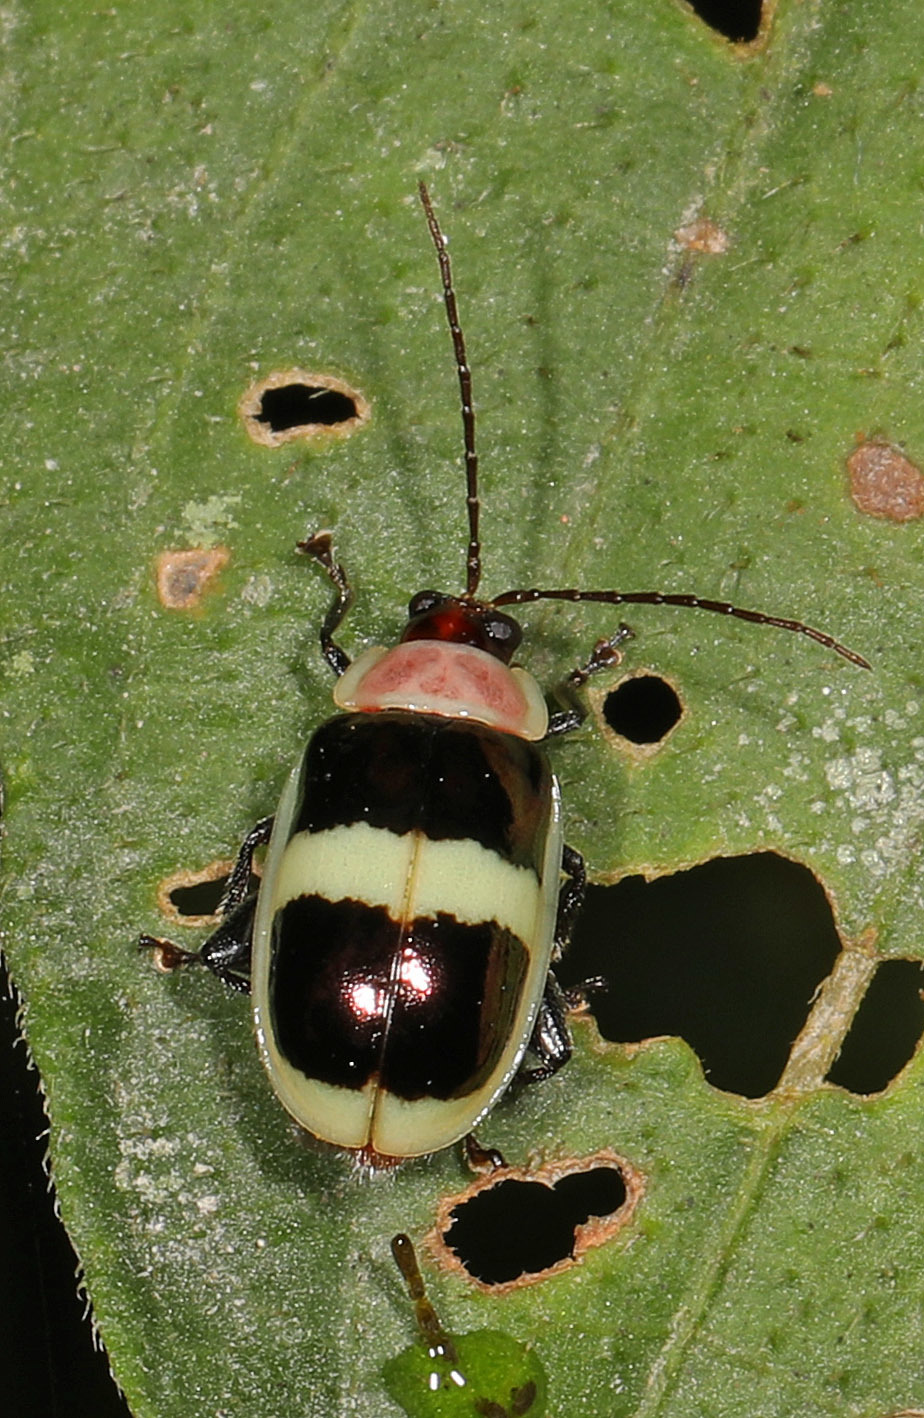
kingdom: Animalia
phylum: Arthropoda
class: Insecta
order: Coleoptera
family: Chrysomelidae
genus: Alagoasa
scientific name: Alagoasa
